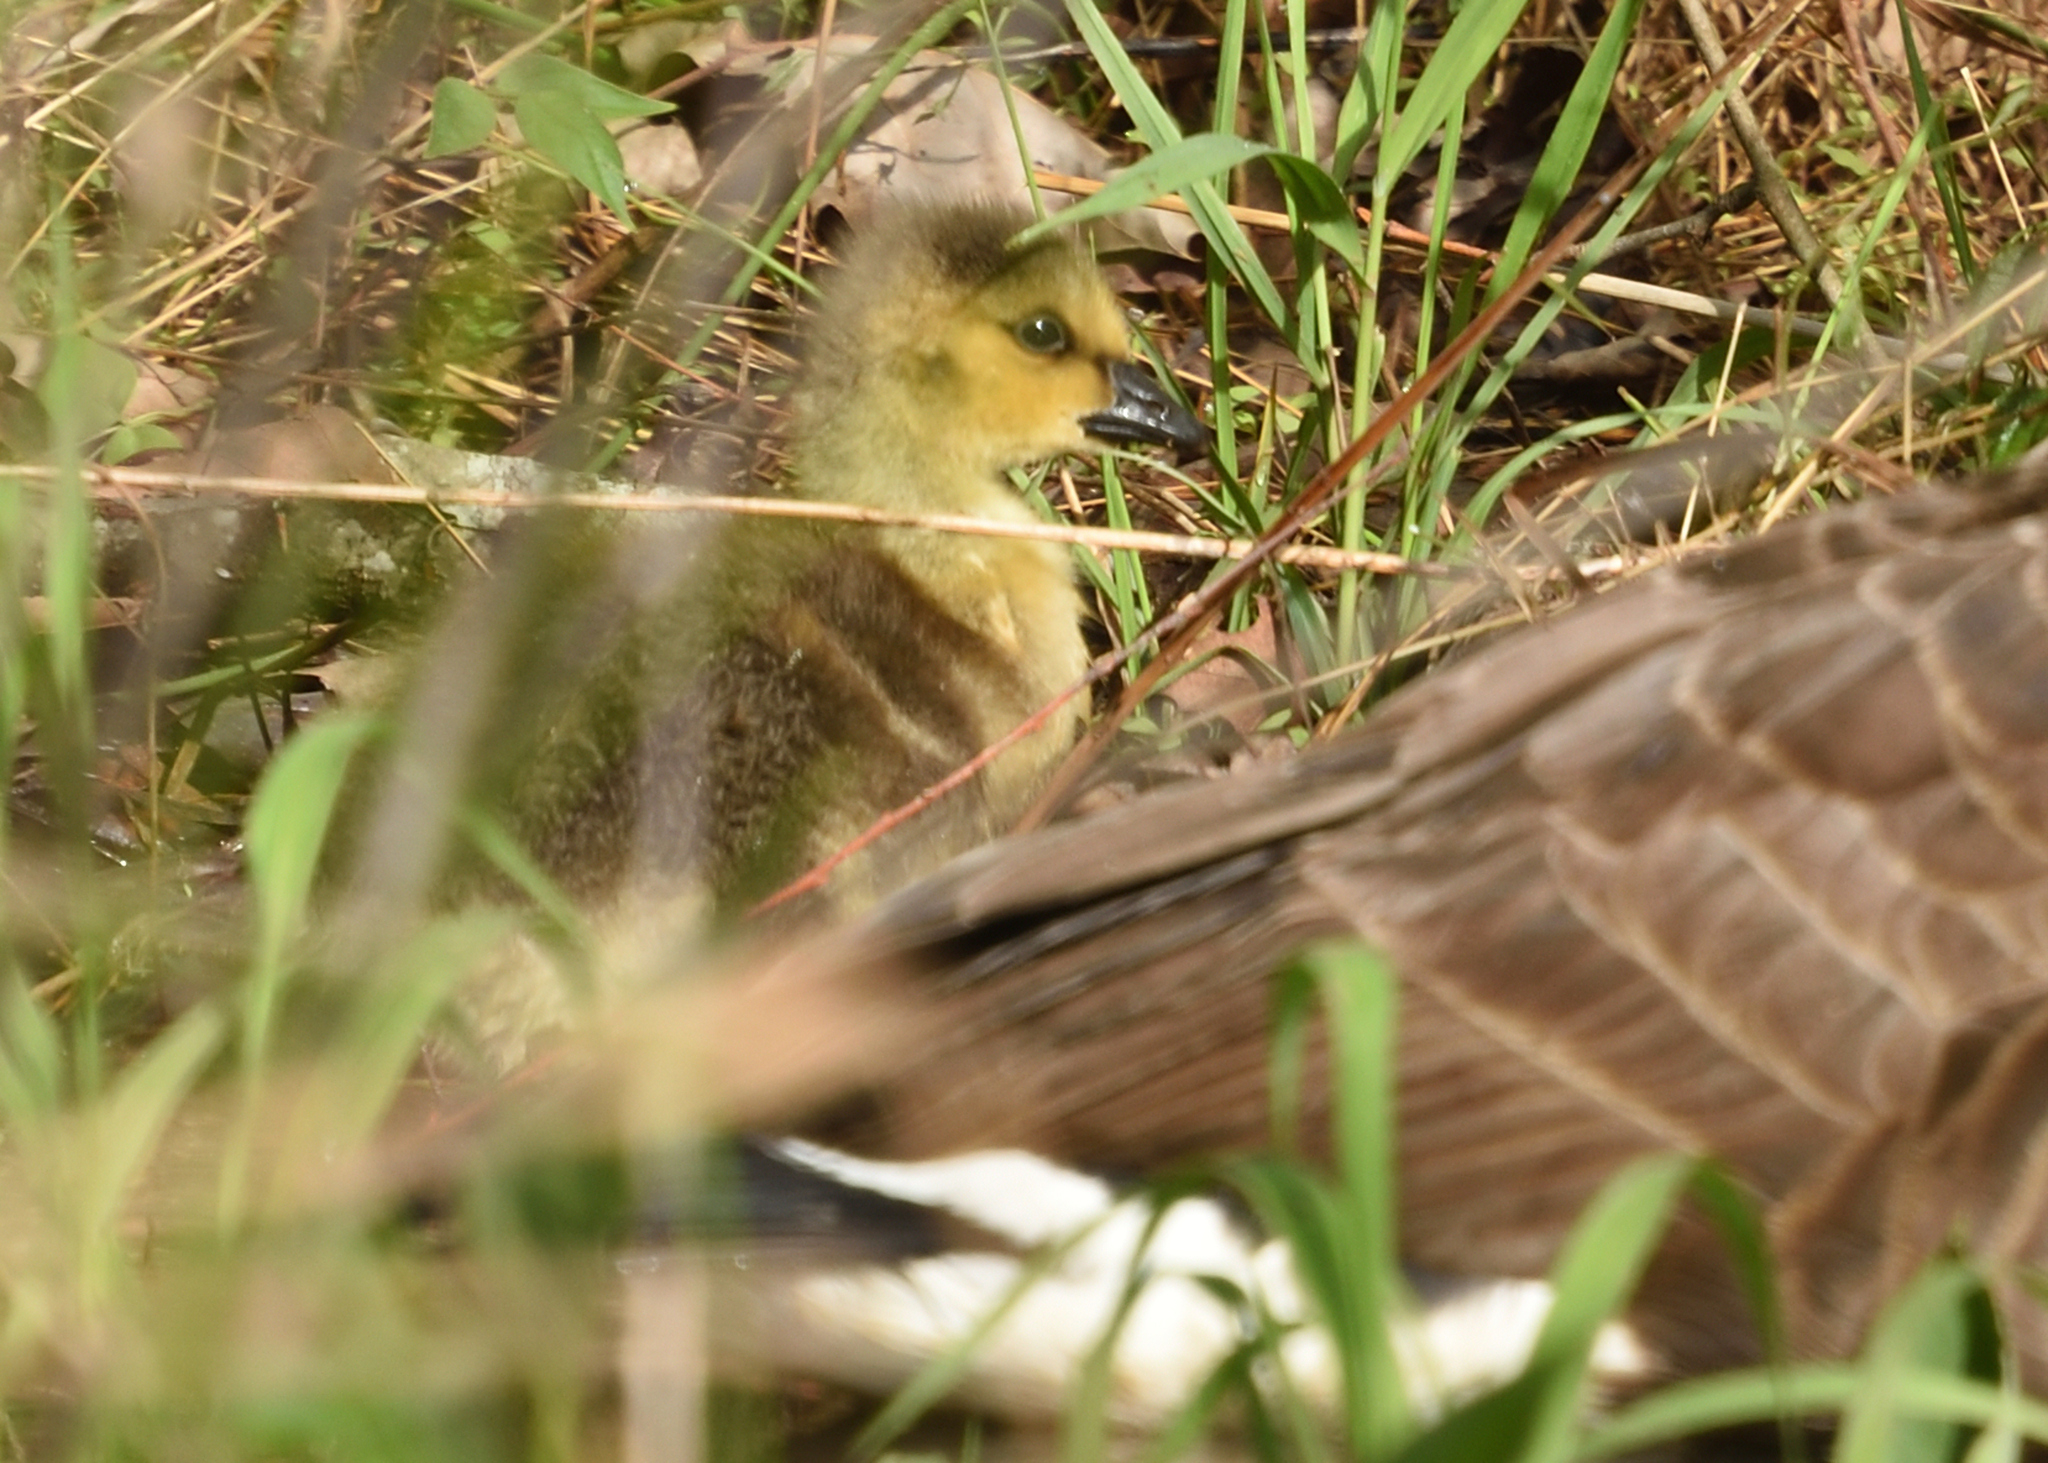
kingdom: Animalia
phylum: Chordata
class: Aves
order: Anseriformes
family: Anatidae
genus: Branta
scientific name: Branta canadensis
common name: Canada goose
